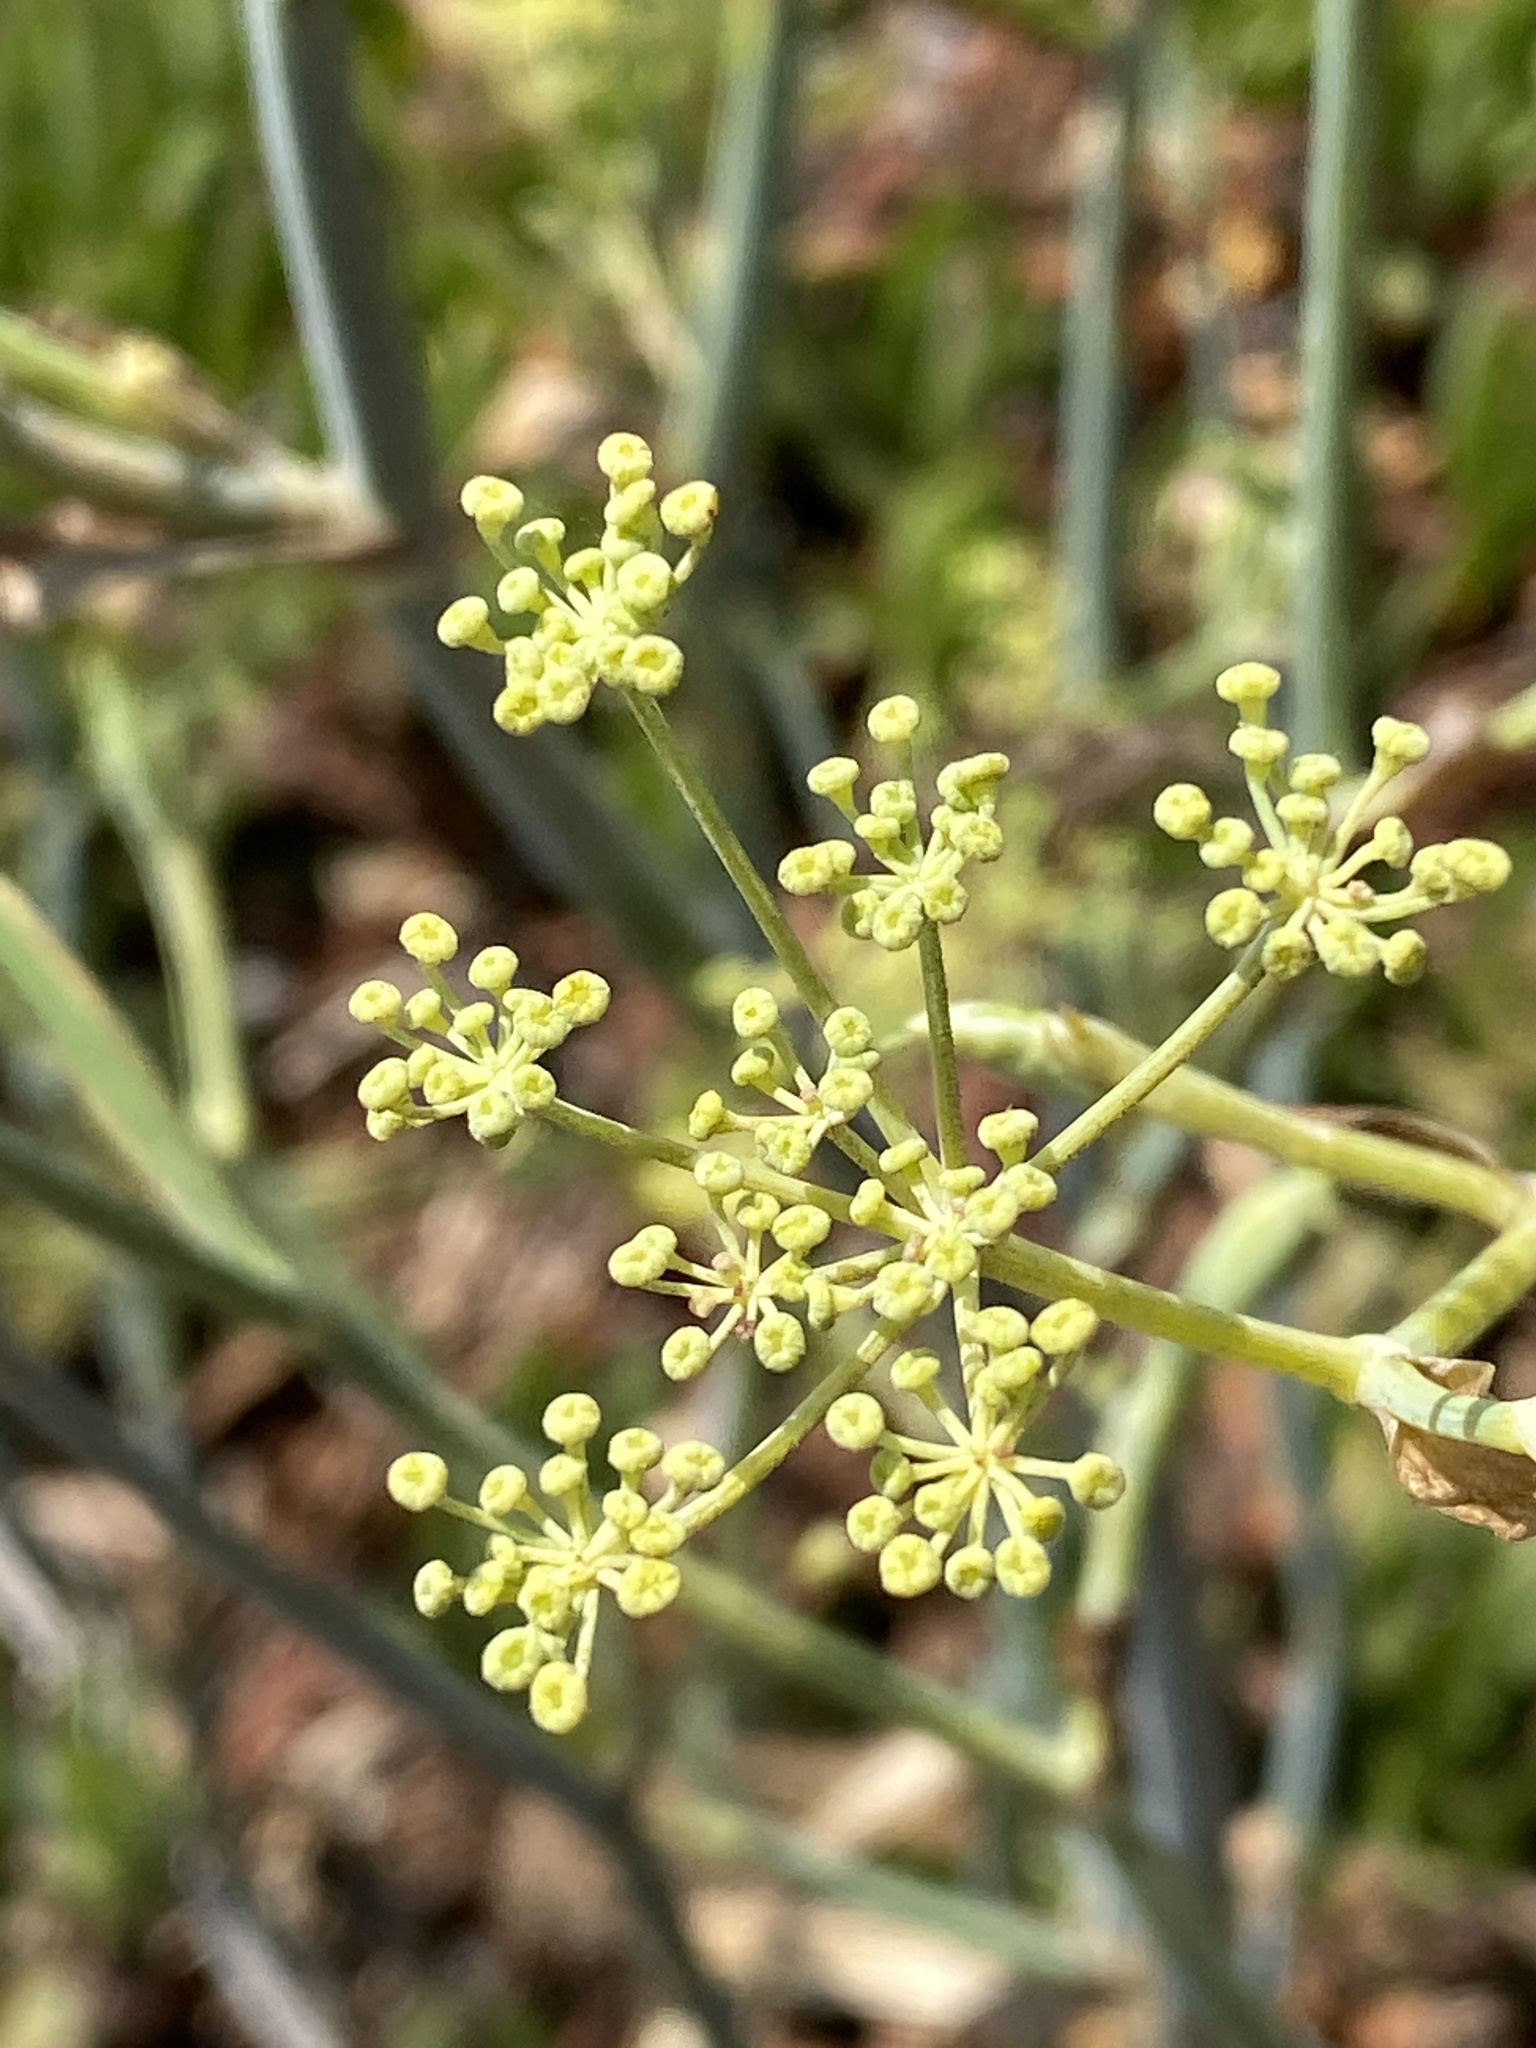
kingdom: Plantae
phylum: Tracheophyta
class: Magnoliopsida
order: Apiales
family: Apiaceae
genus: Foeniculum
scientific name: Foeniculum vulgare
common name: Fennel
